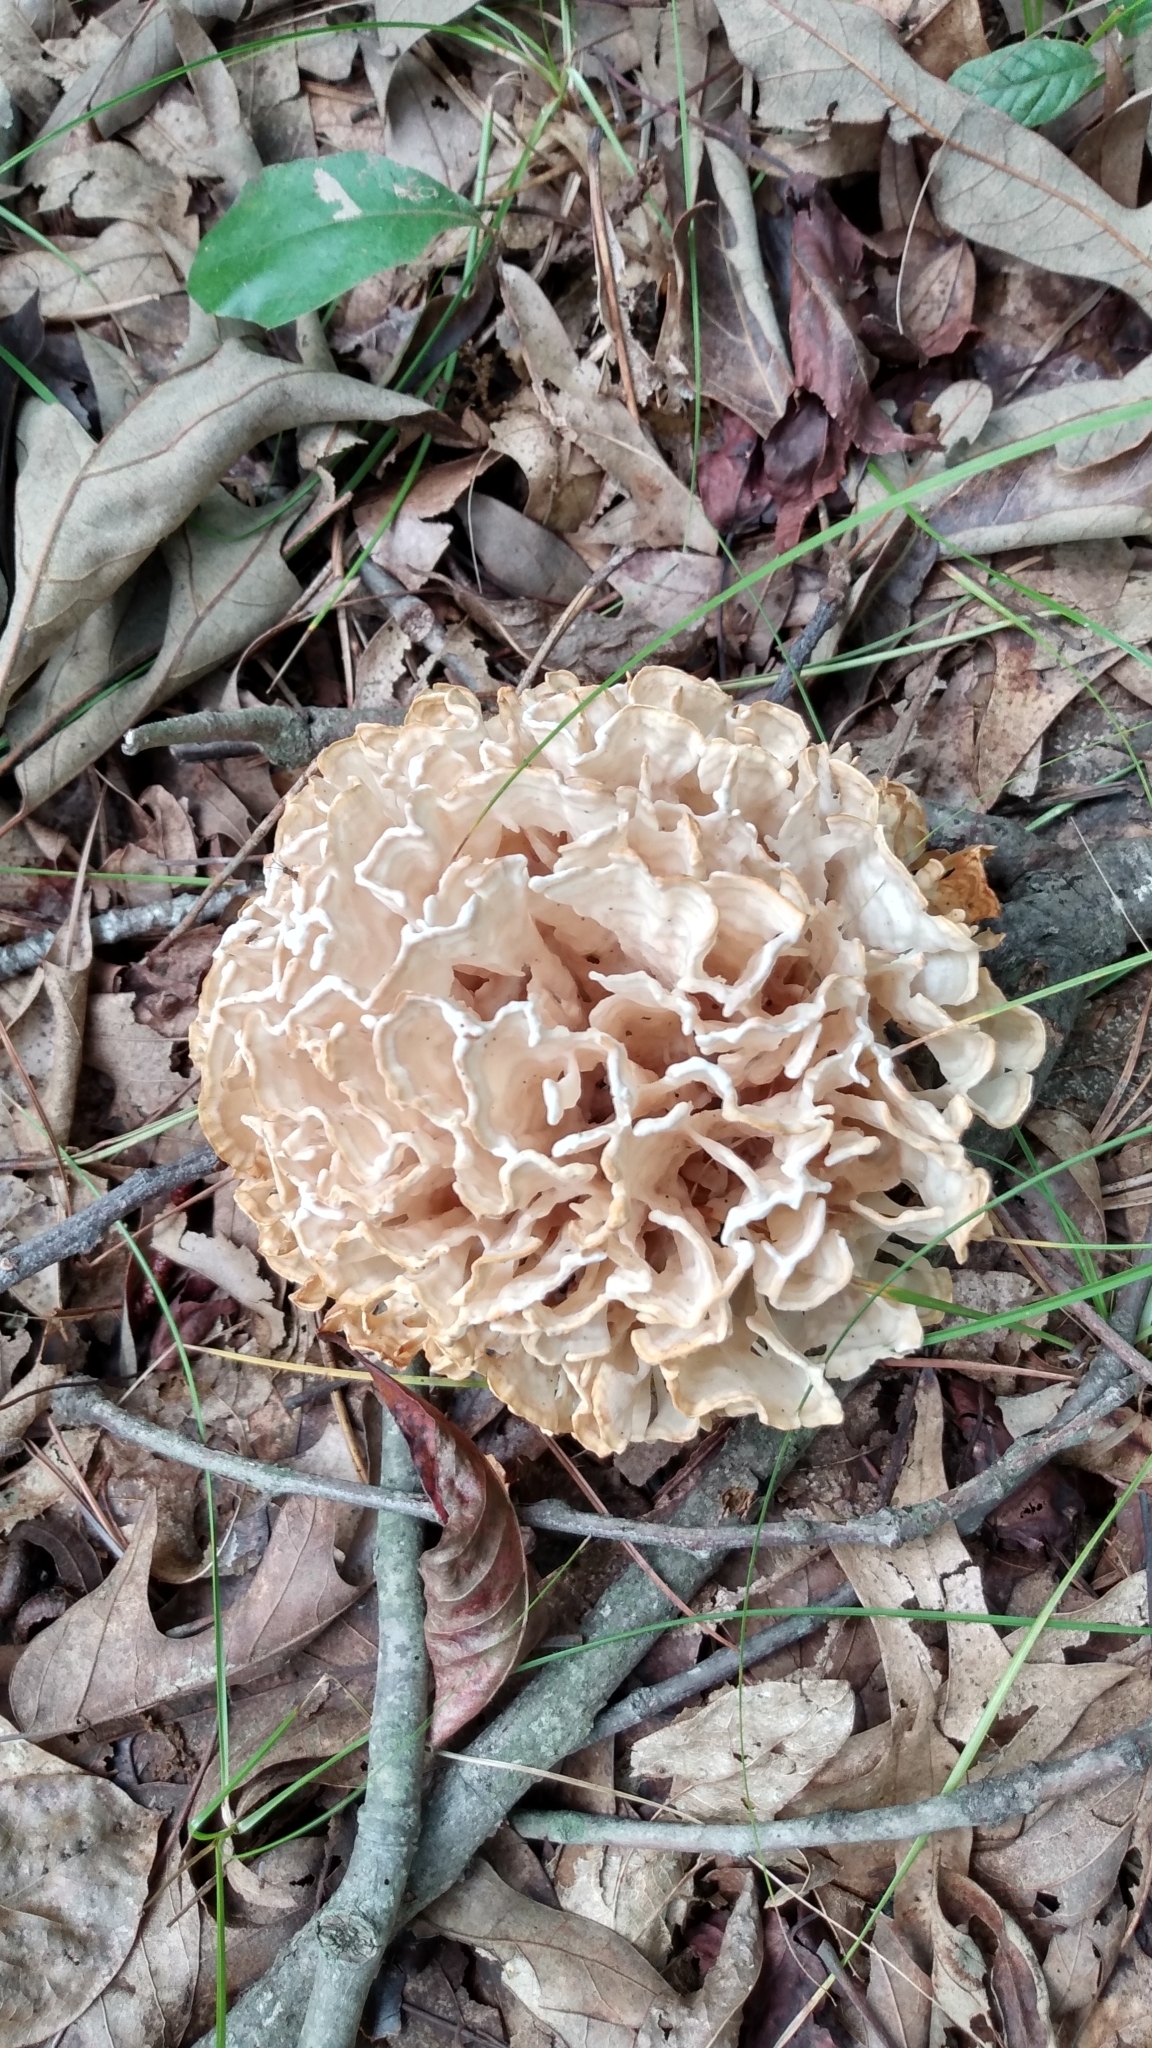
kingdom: Fungi
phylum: Basidiomycota
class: Agaricomycetes
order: Polyporales
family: Sparassidaceae
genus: Sparassis
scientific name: Sparassis spathulata
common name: Eastern cauliflower mushroom
